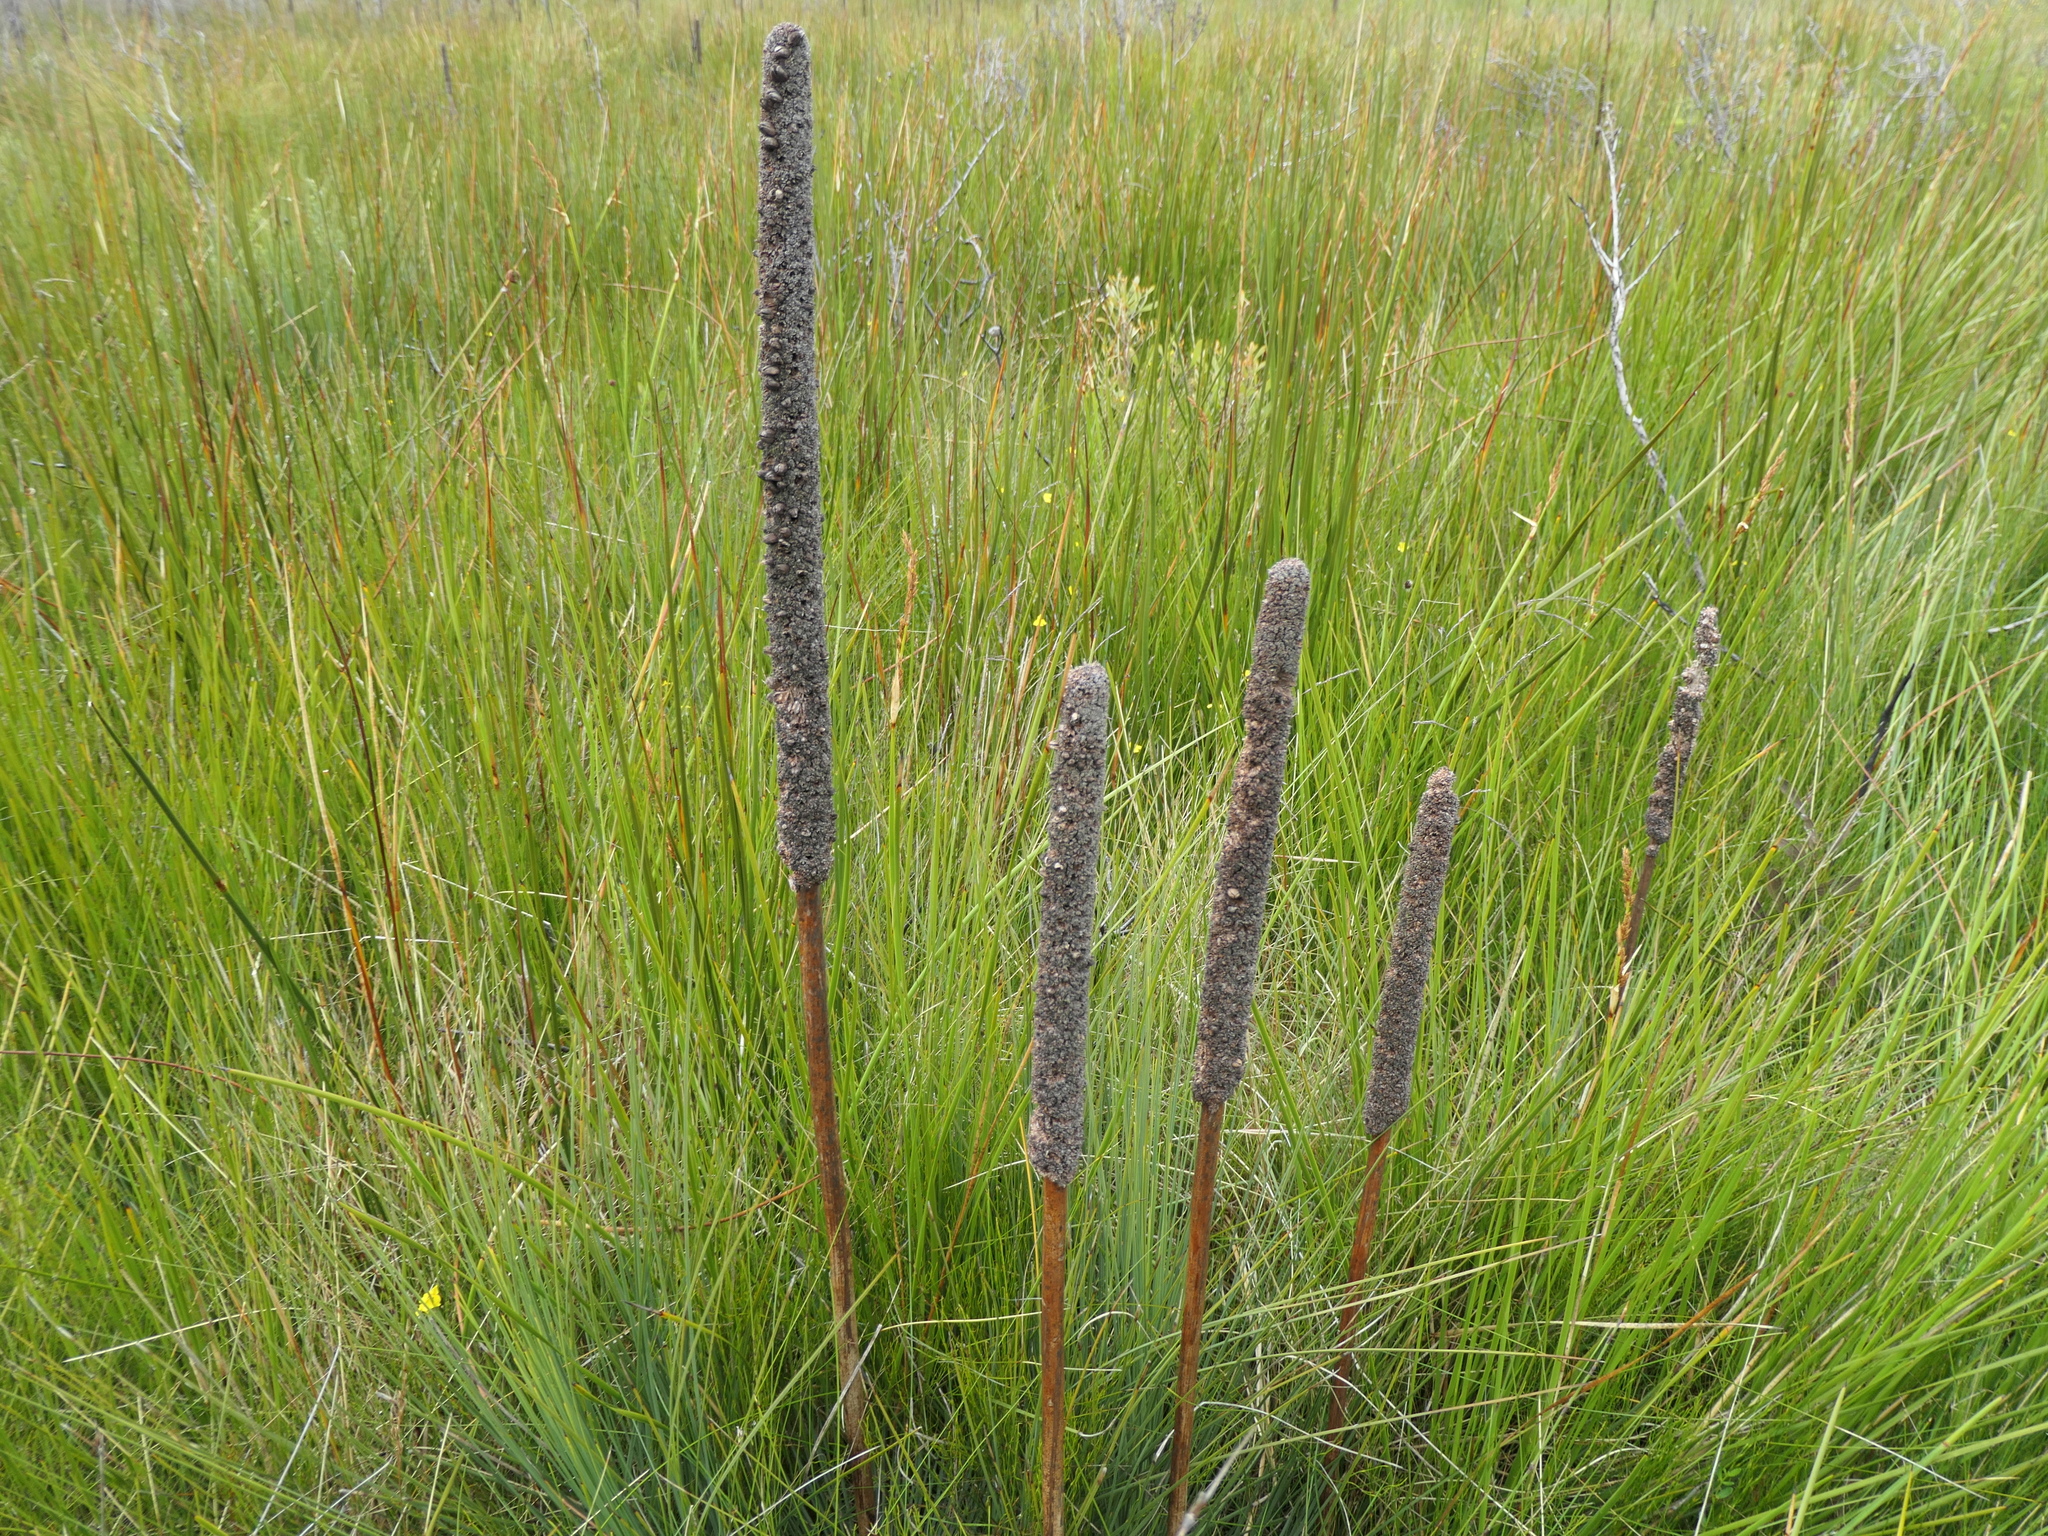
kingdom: Plantae
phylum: Tracheophyta
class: Liliopsida
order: Asparagales
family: Asphodelaceae
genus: Xanthorrhoea
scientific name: Xanthorrhoea resinosa
